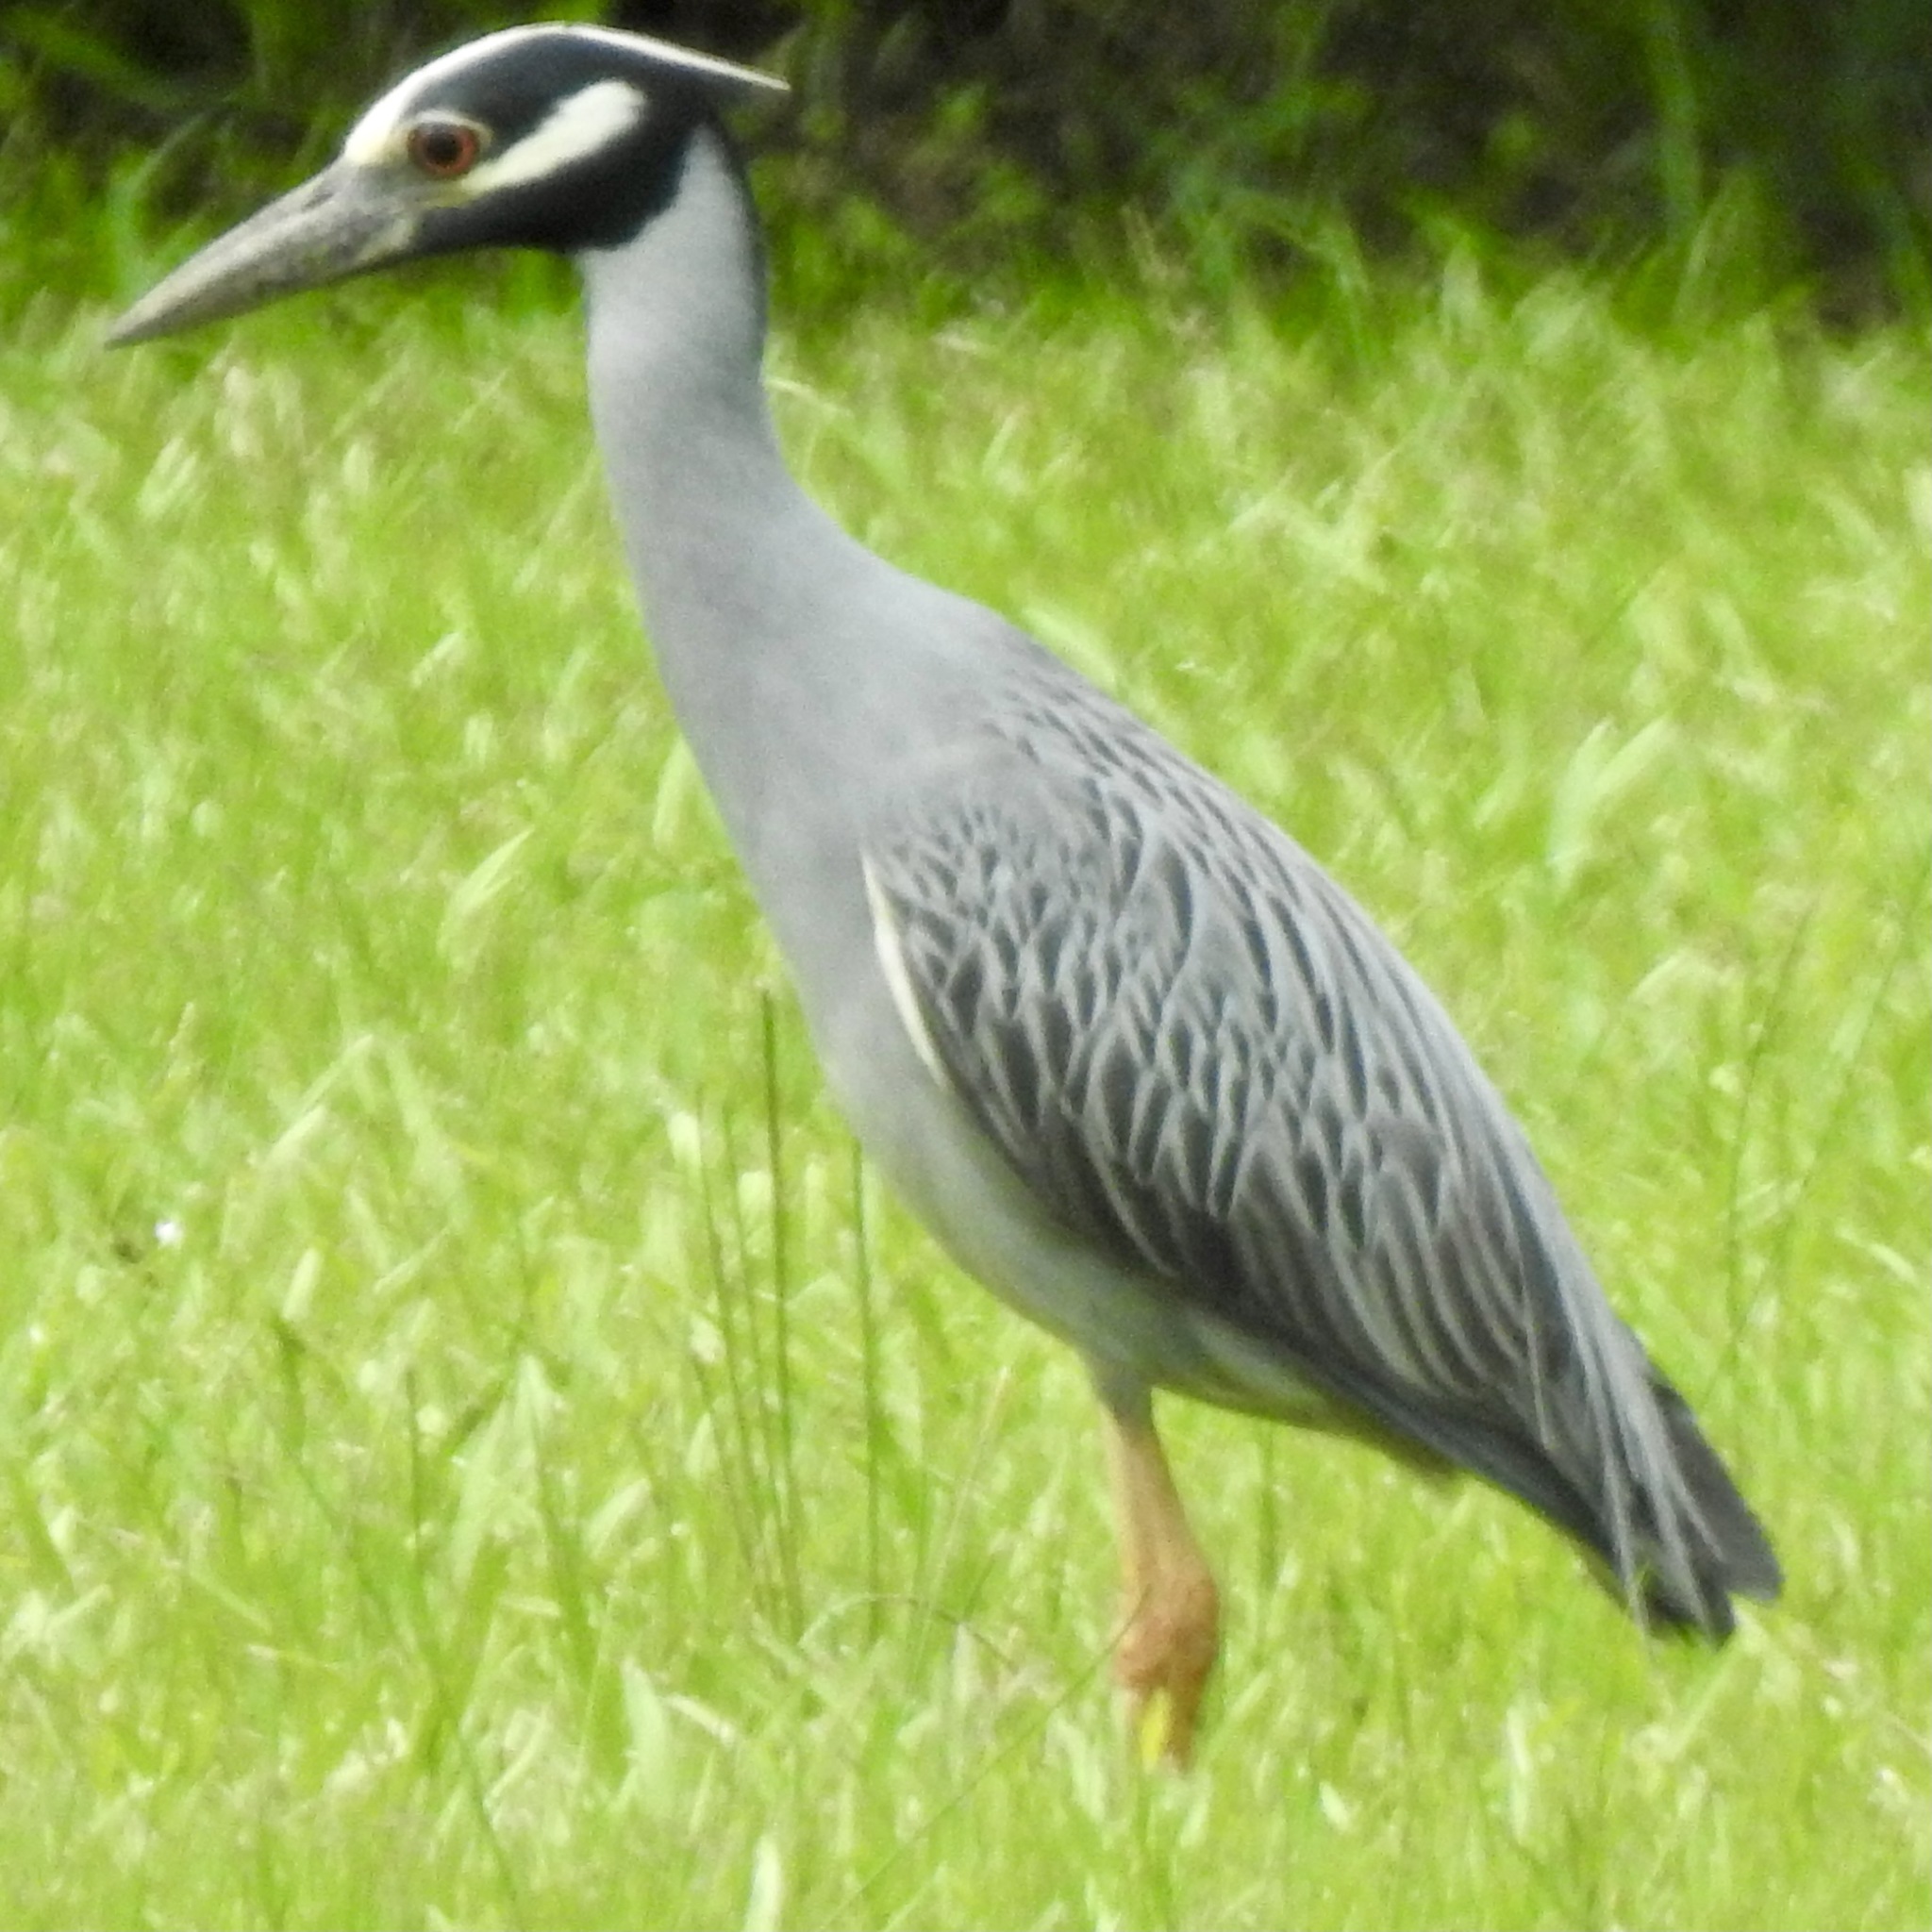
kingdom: Animalia
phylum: Chordata
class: Aves
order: Pelecaniformes
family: Ardeidae
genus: Nyctanassa
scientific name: Nyctanassa violacea
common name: Yellow-crowned night heron
